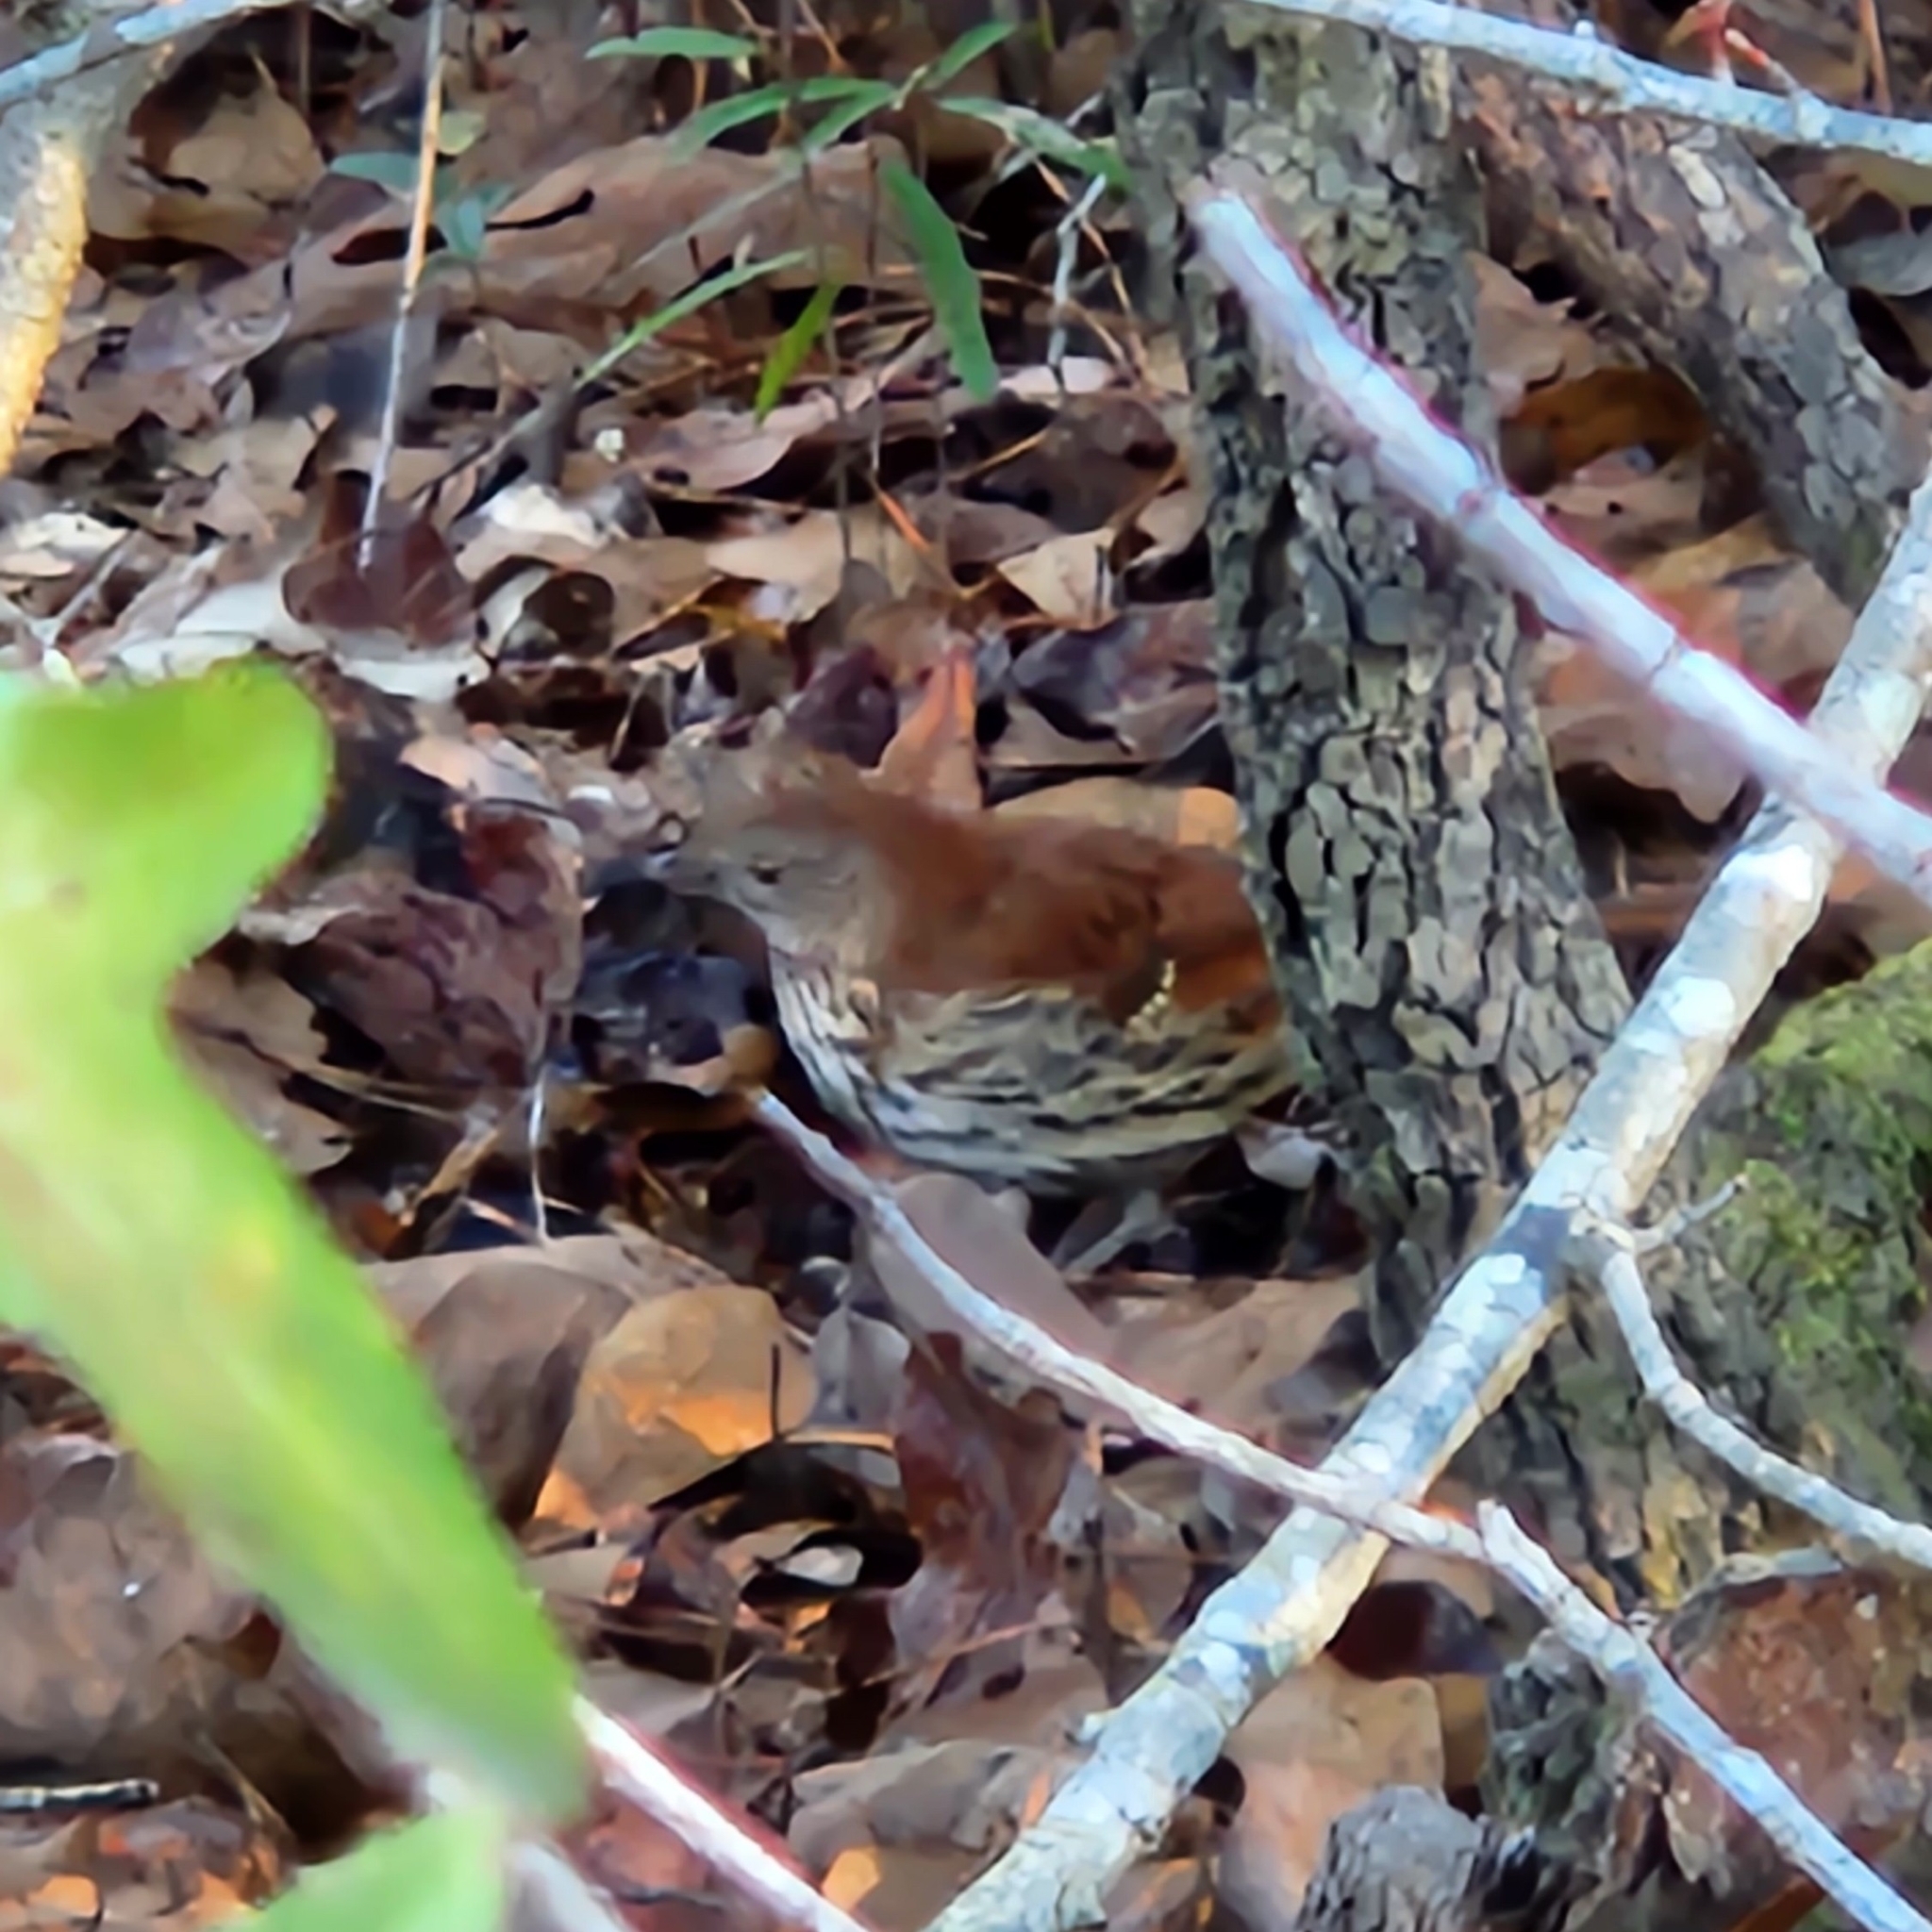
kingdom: Animalia
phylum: Chordata
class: Aves
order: Passeriformes
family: Mimidae
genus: Toxostoma
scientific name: Toxostoma rufum
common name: Brown thrasher
